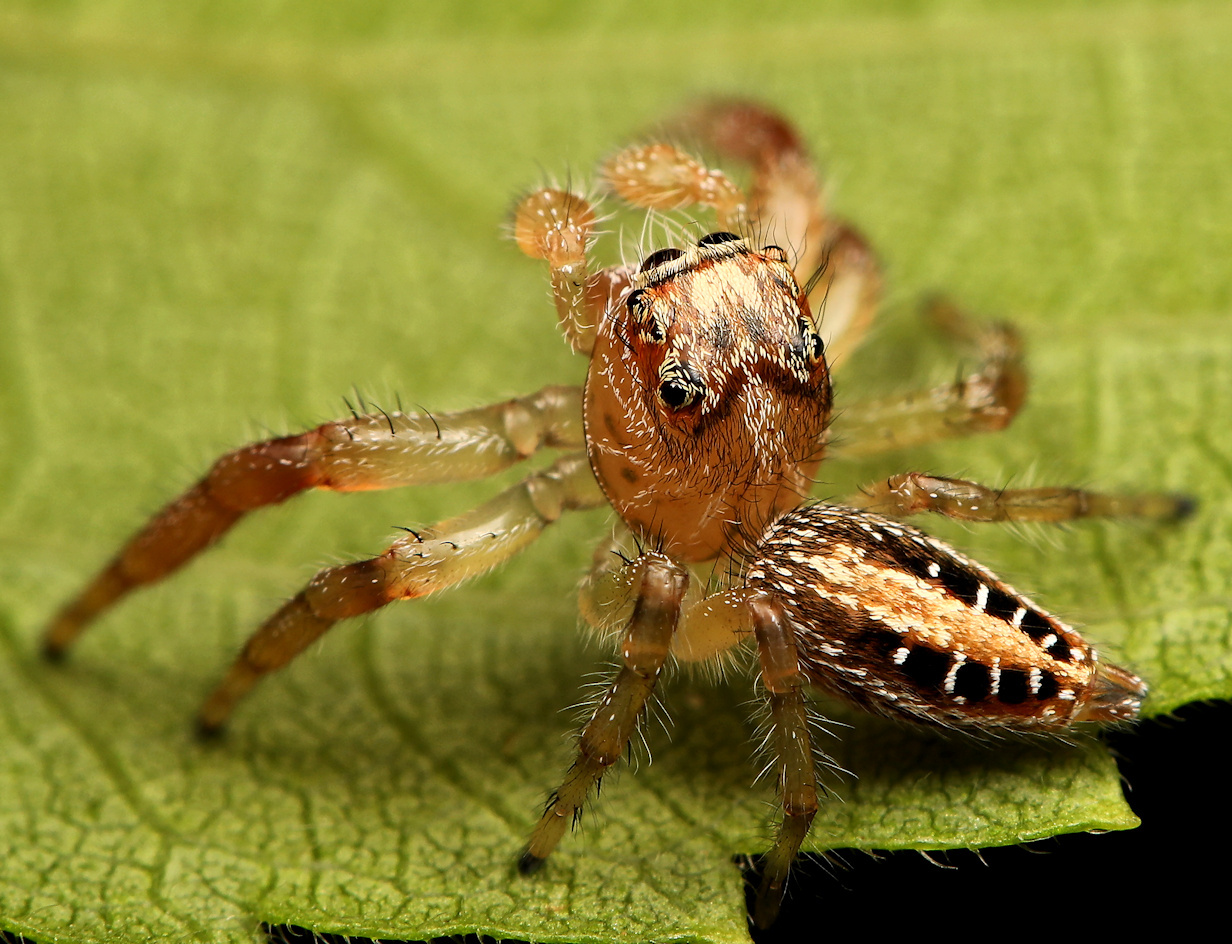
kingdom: Animalia
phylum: Arthropoda
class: Arachnida
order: Araneae
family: Salticidae
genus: Thyene
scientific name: Thyene ogdeni
